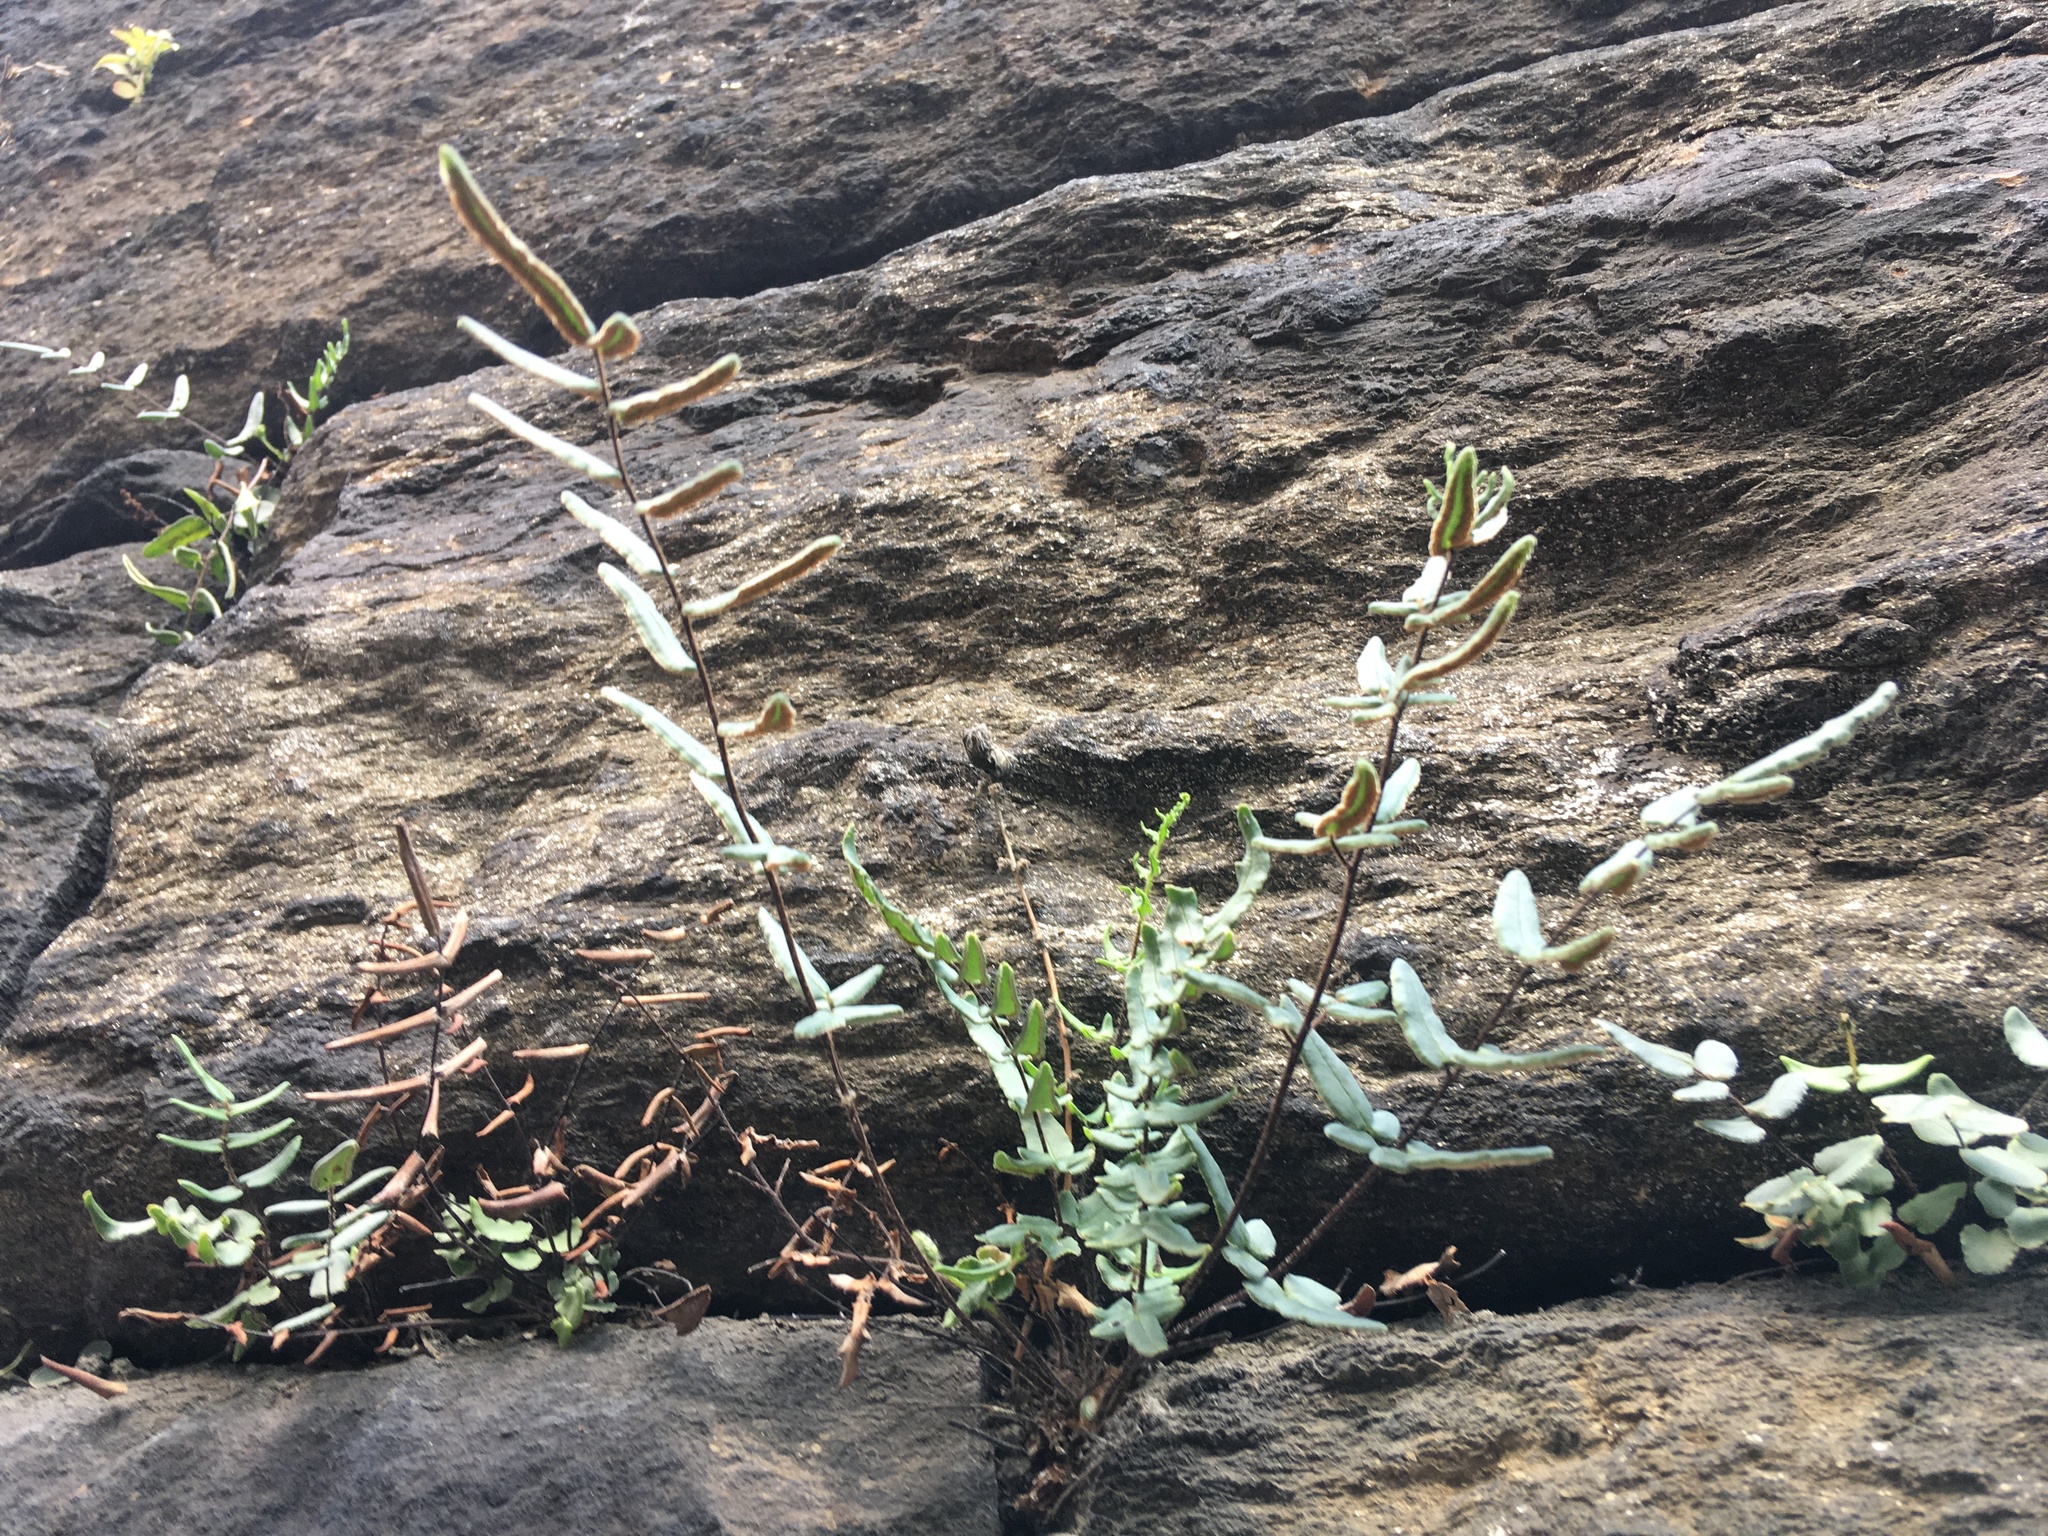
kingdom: Plantae
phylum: Tracheophyta
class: Polypodiopsida
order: Polypodiales
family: Pteridaceae
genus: Pellaea
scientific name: Pellaea atropurpurea
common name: Hairy cliffbrake
